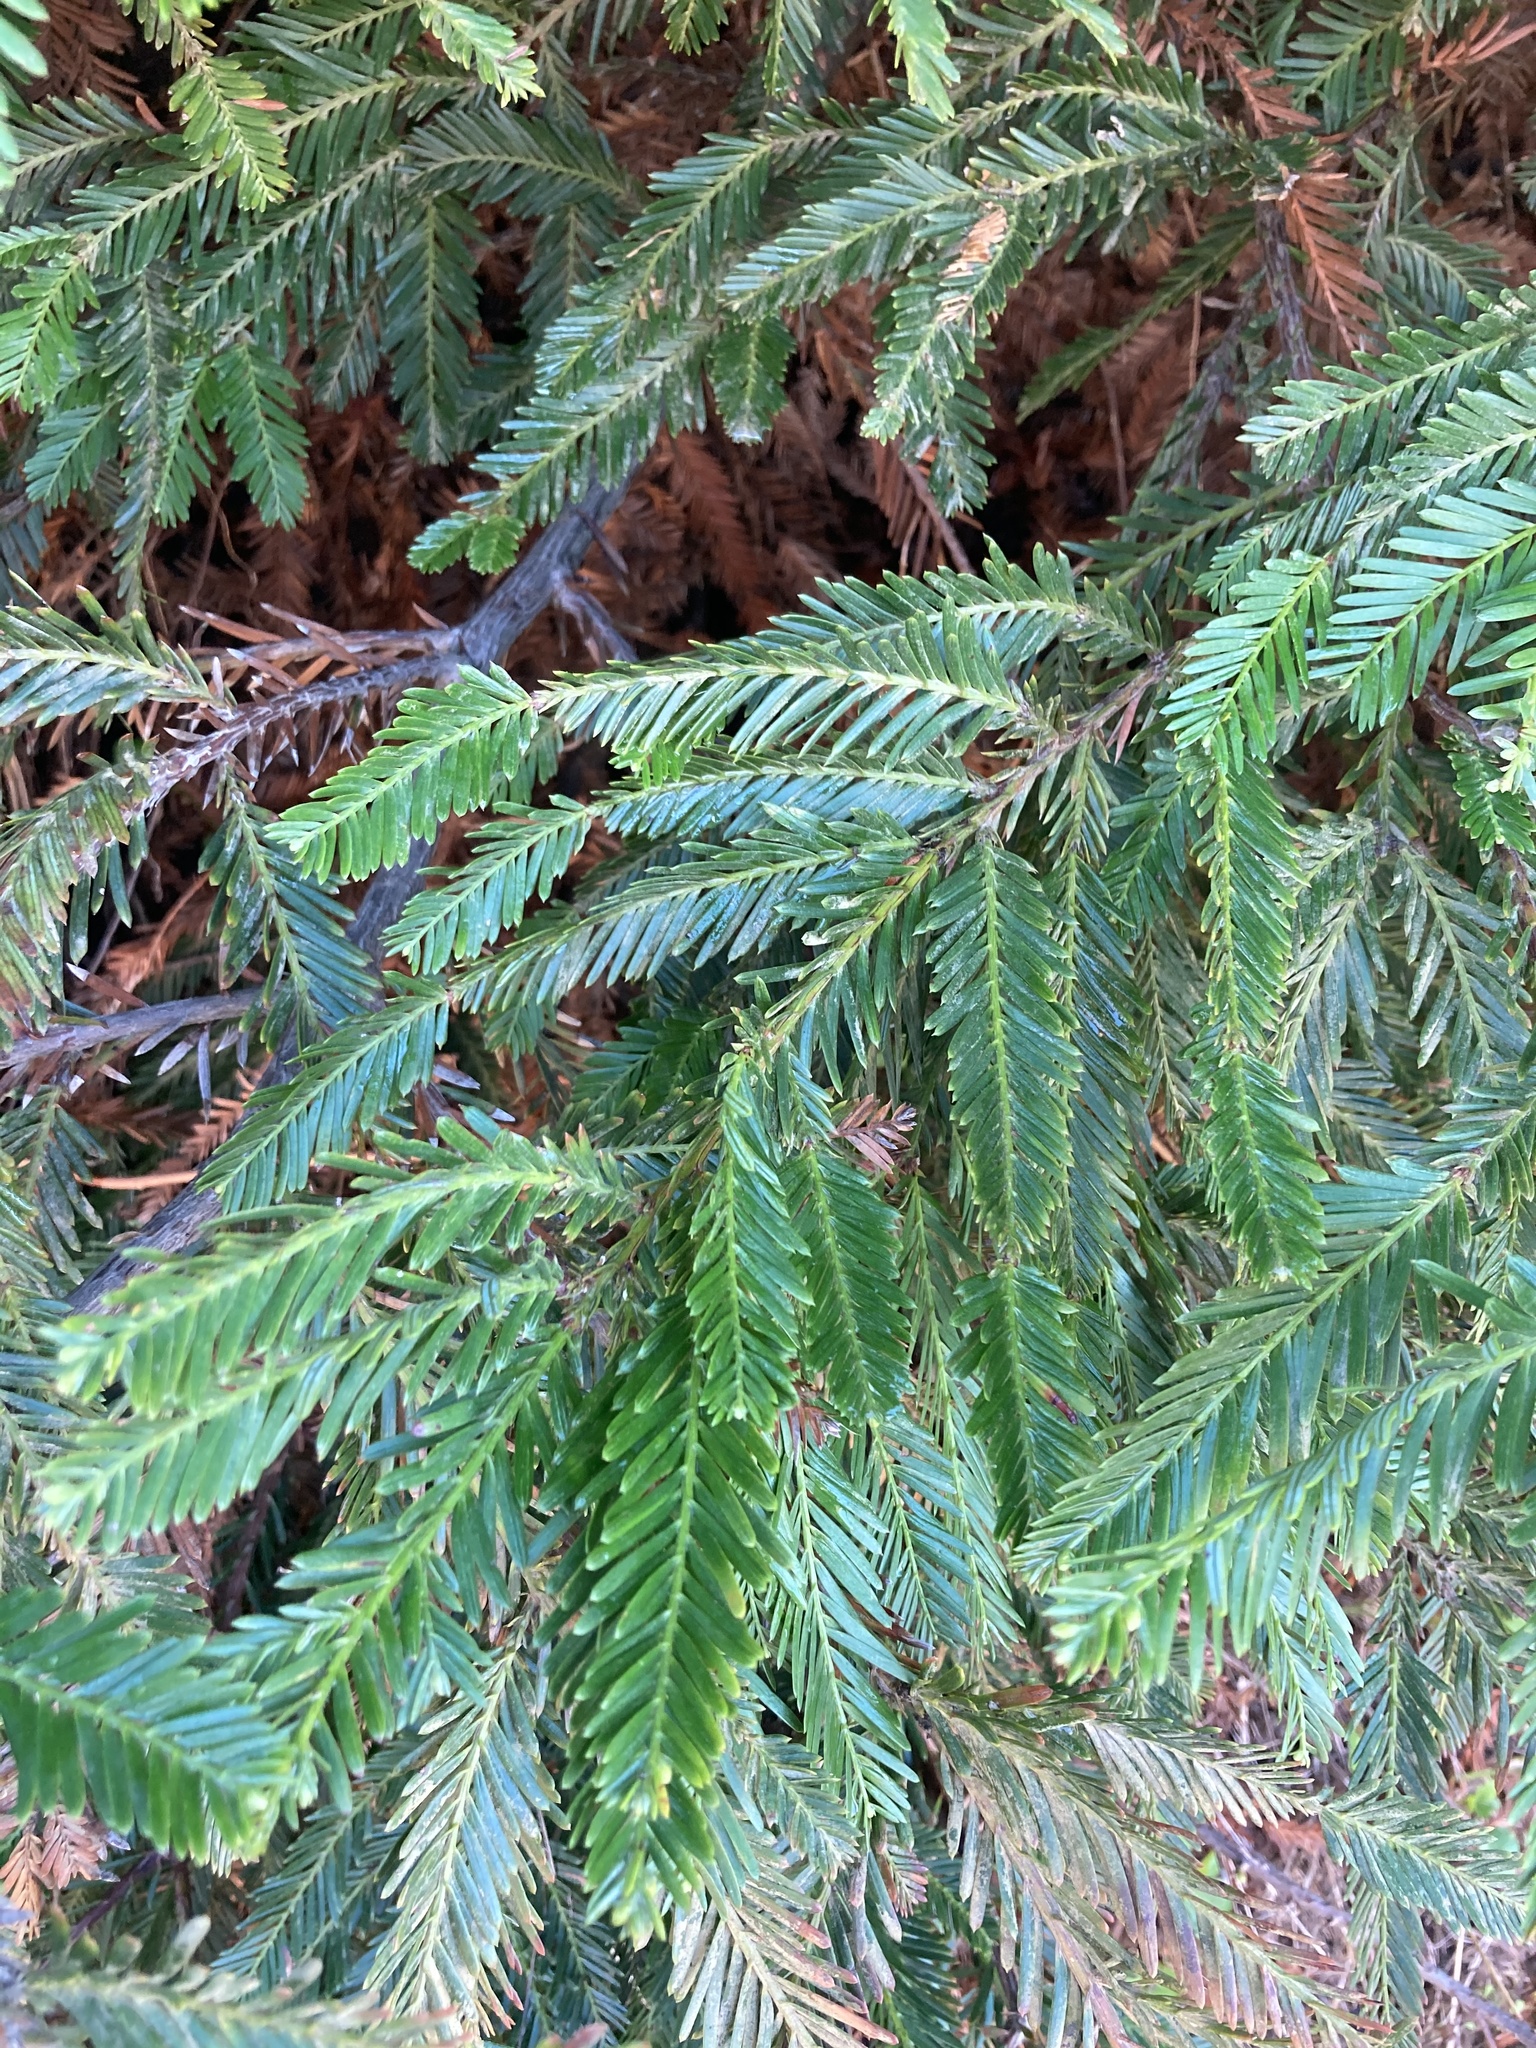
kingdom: Plantae
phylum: Tracheophyta
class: Pinopsida
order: Pinales
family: Cupressaceae
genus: Sequoia
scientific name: Sequoia sempervirens
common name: Coast redwood
